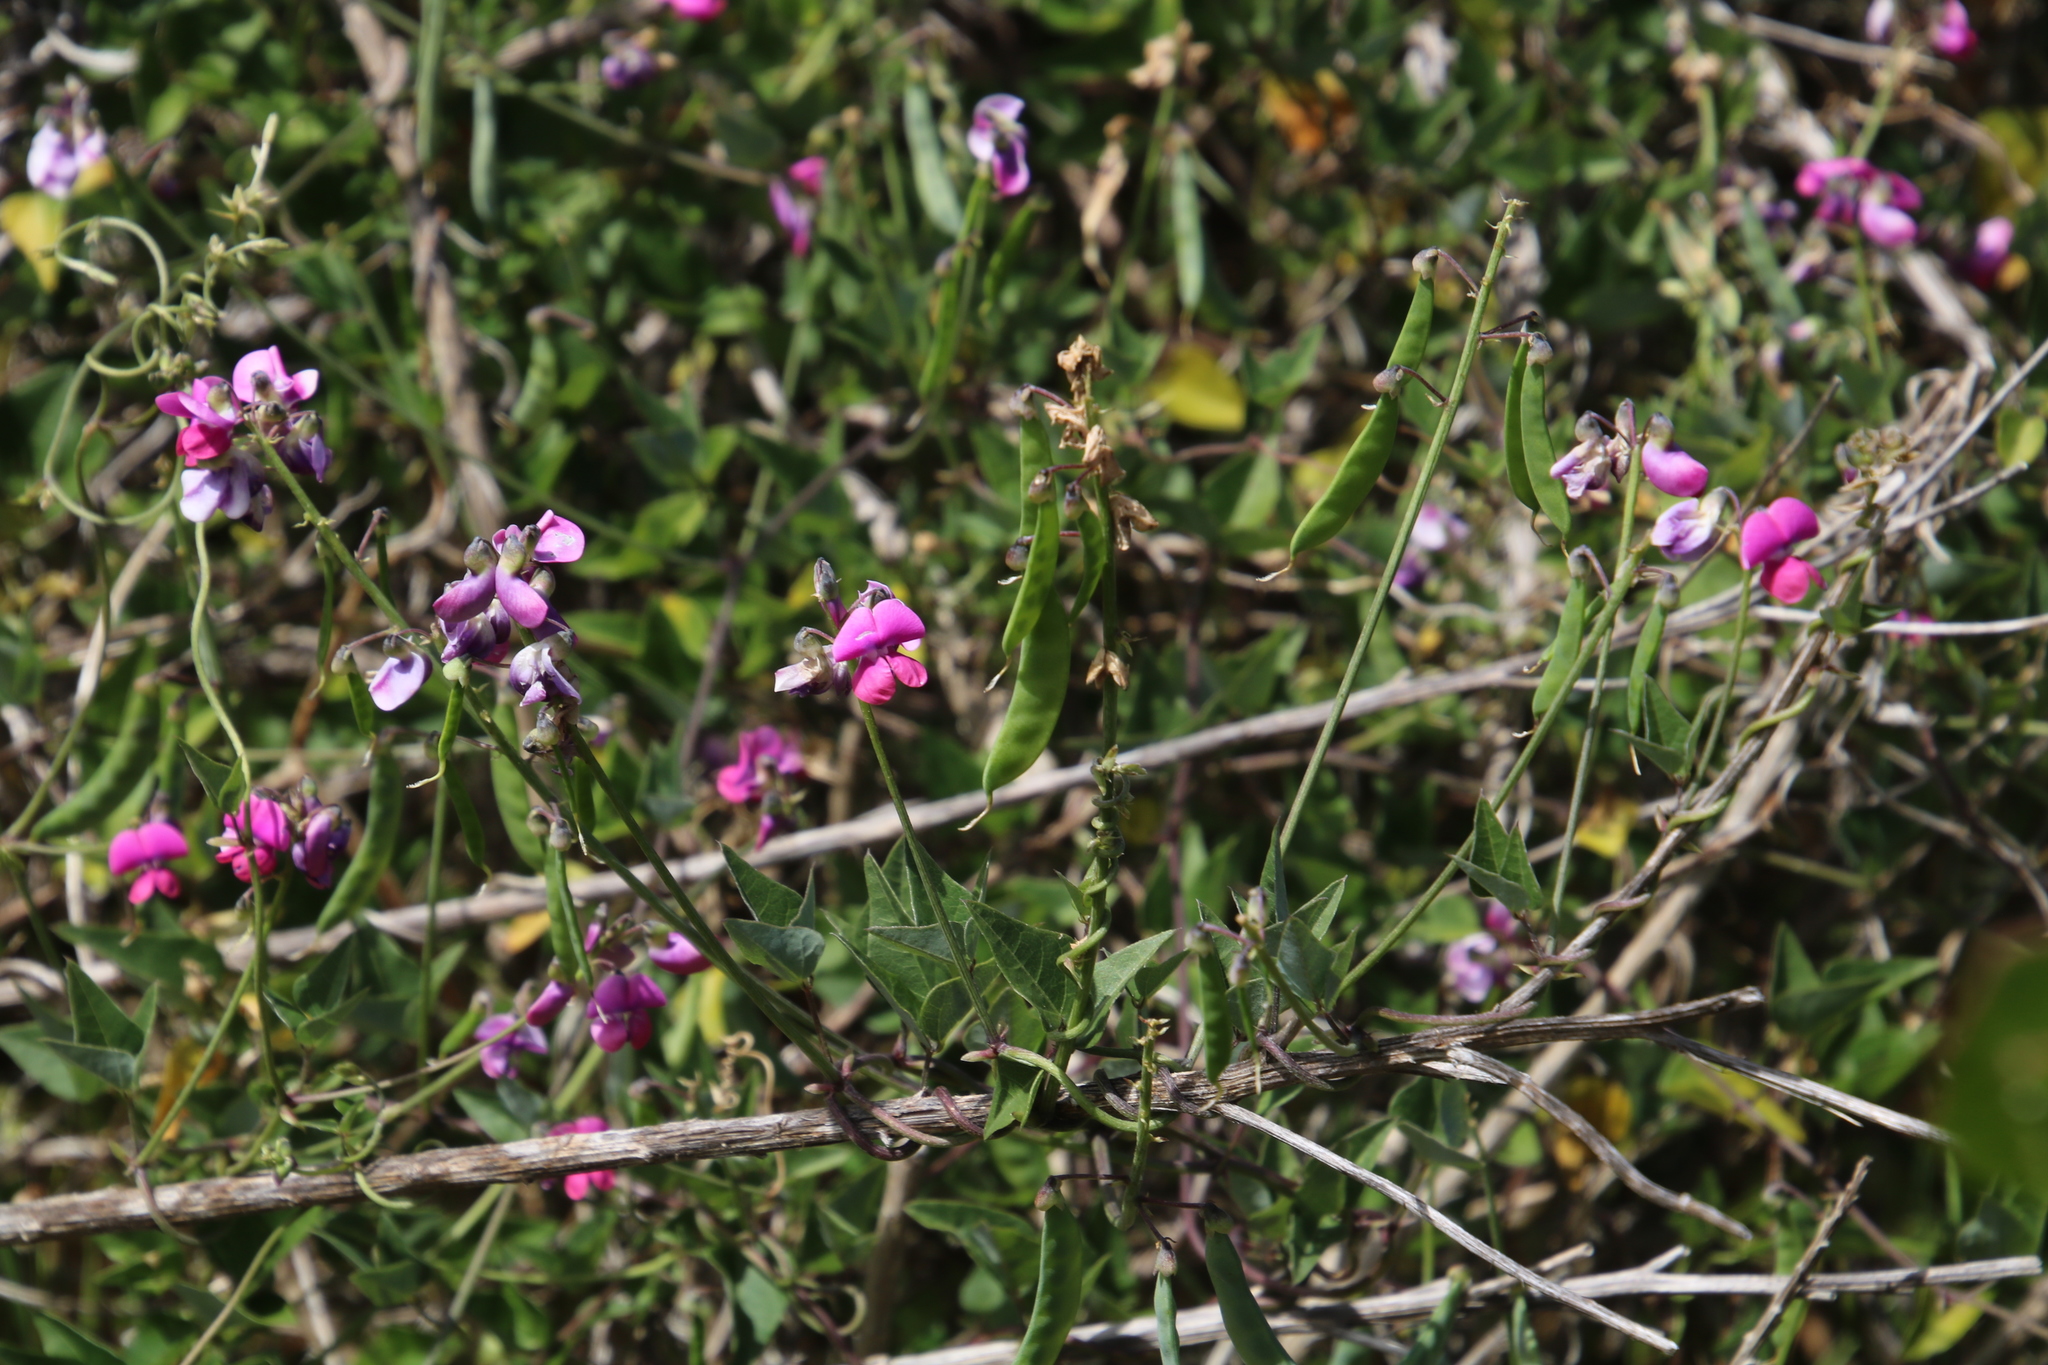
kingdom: Plantae
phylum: Tracheophyta
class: Magnoliopsida
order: Fabales
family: Fabaceae
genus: Dipogon
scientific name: Dipogon lignosus
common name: Okie bean
